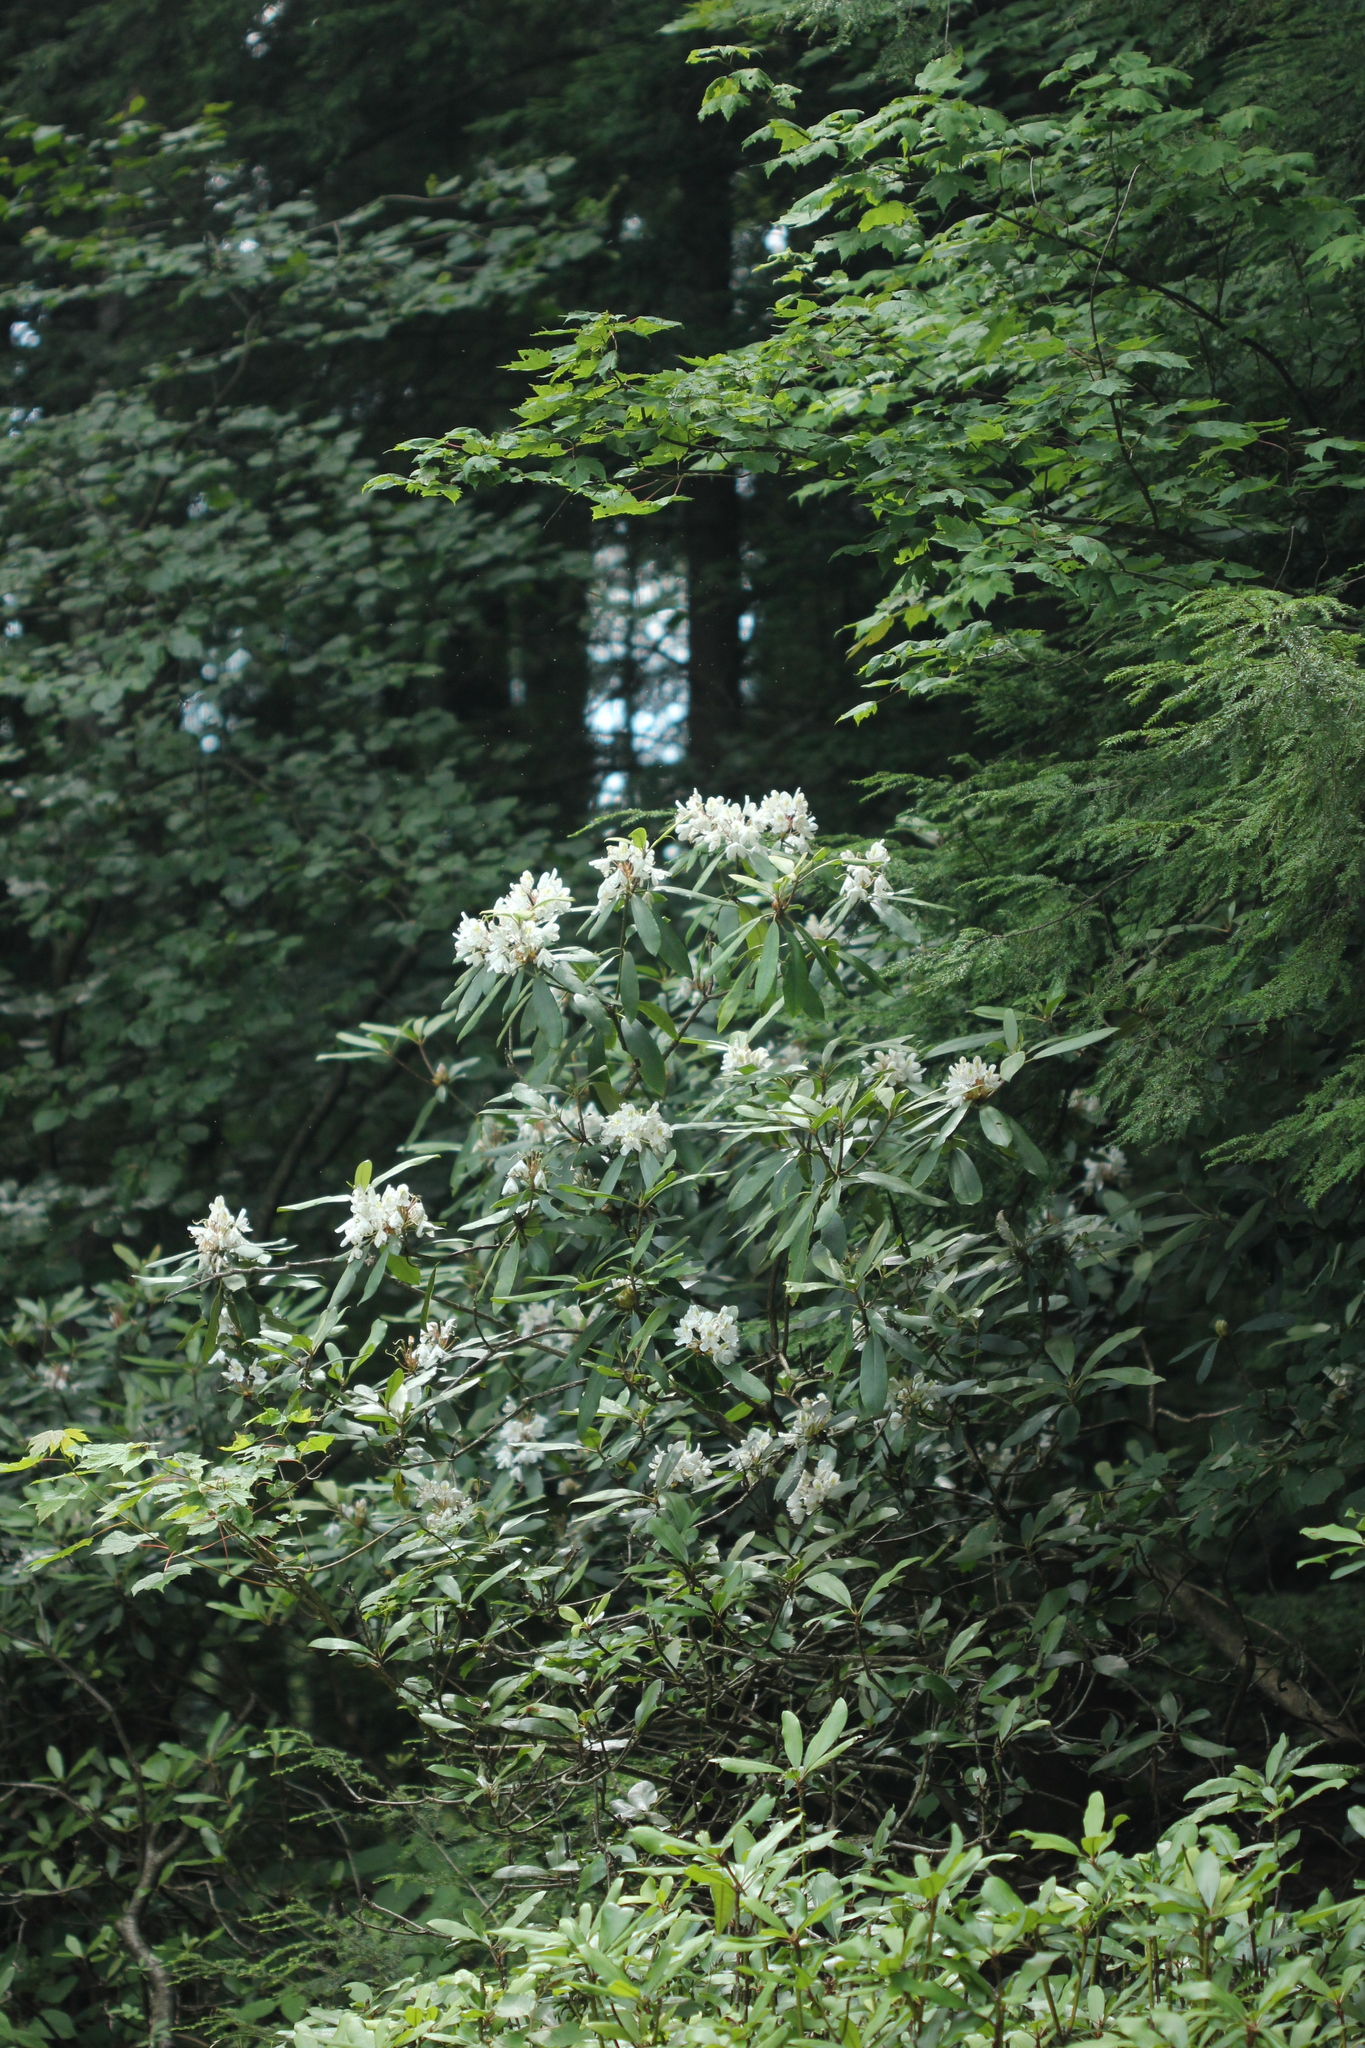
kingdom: Plantae
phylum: Tracheophyta
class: Magnoliopsida
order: Ericales
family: Ericaceae
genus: Rhododendron
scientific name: Rhododendron maximum
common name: Great rhododendron
